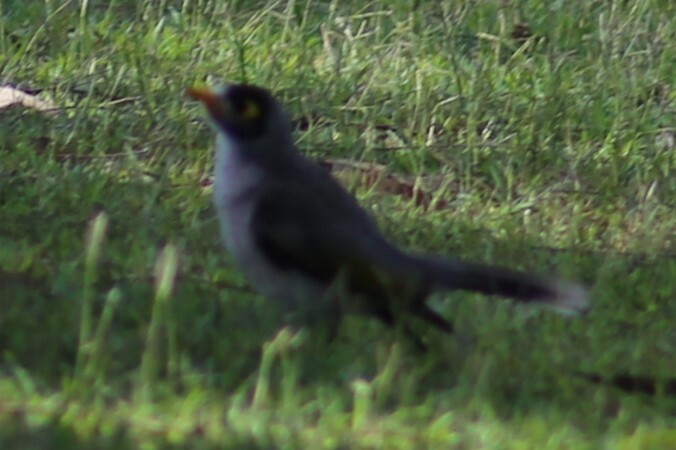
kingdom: Animalia
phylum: Chordata
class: Aves
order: Passeriformes
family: Meliphagidae
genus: Manorina
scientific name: Manorina melanocephala
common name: Noisy miner
